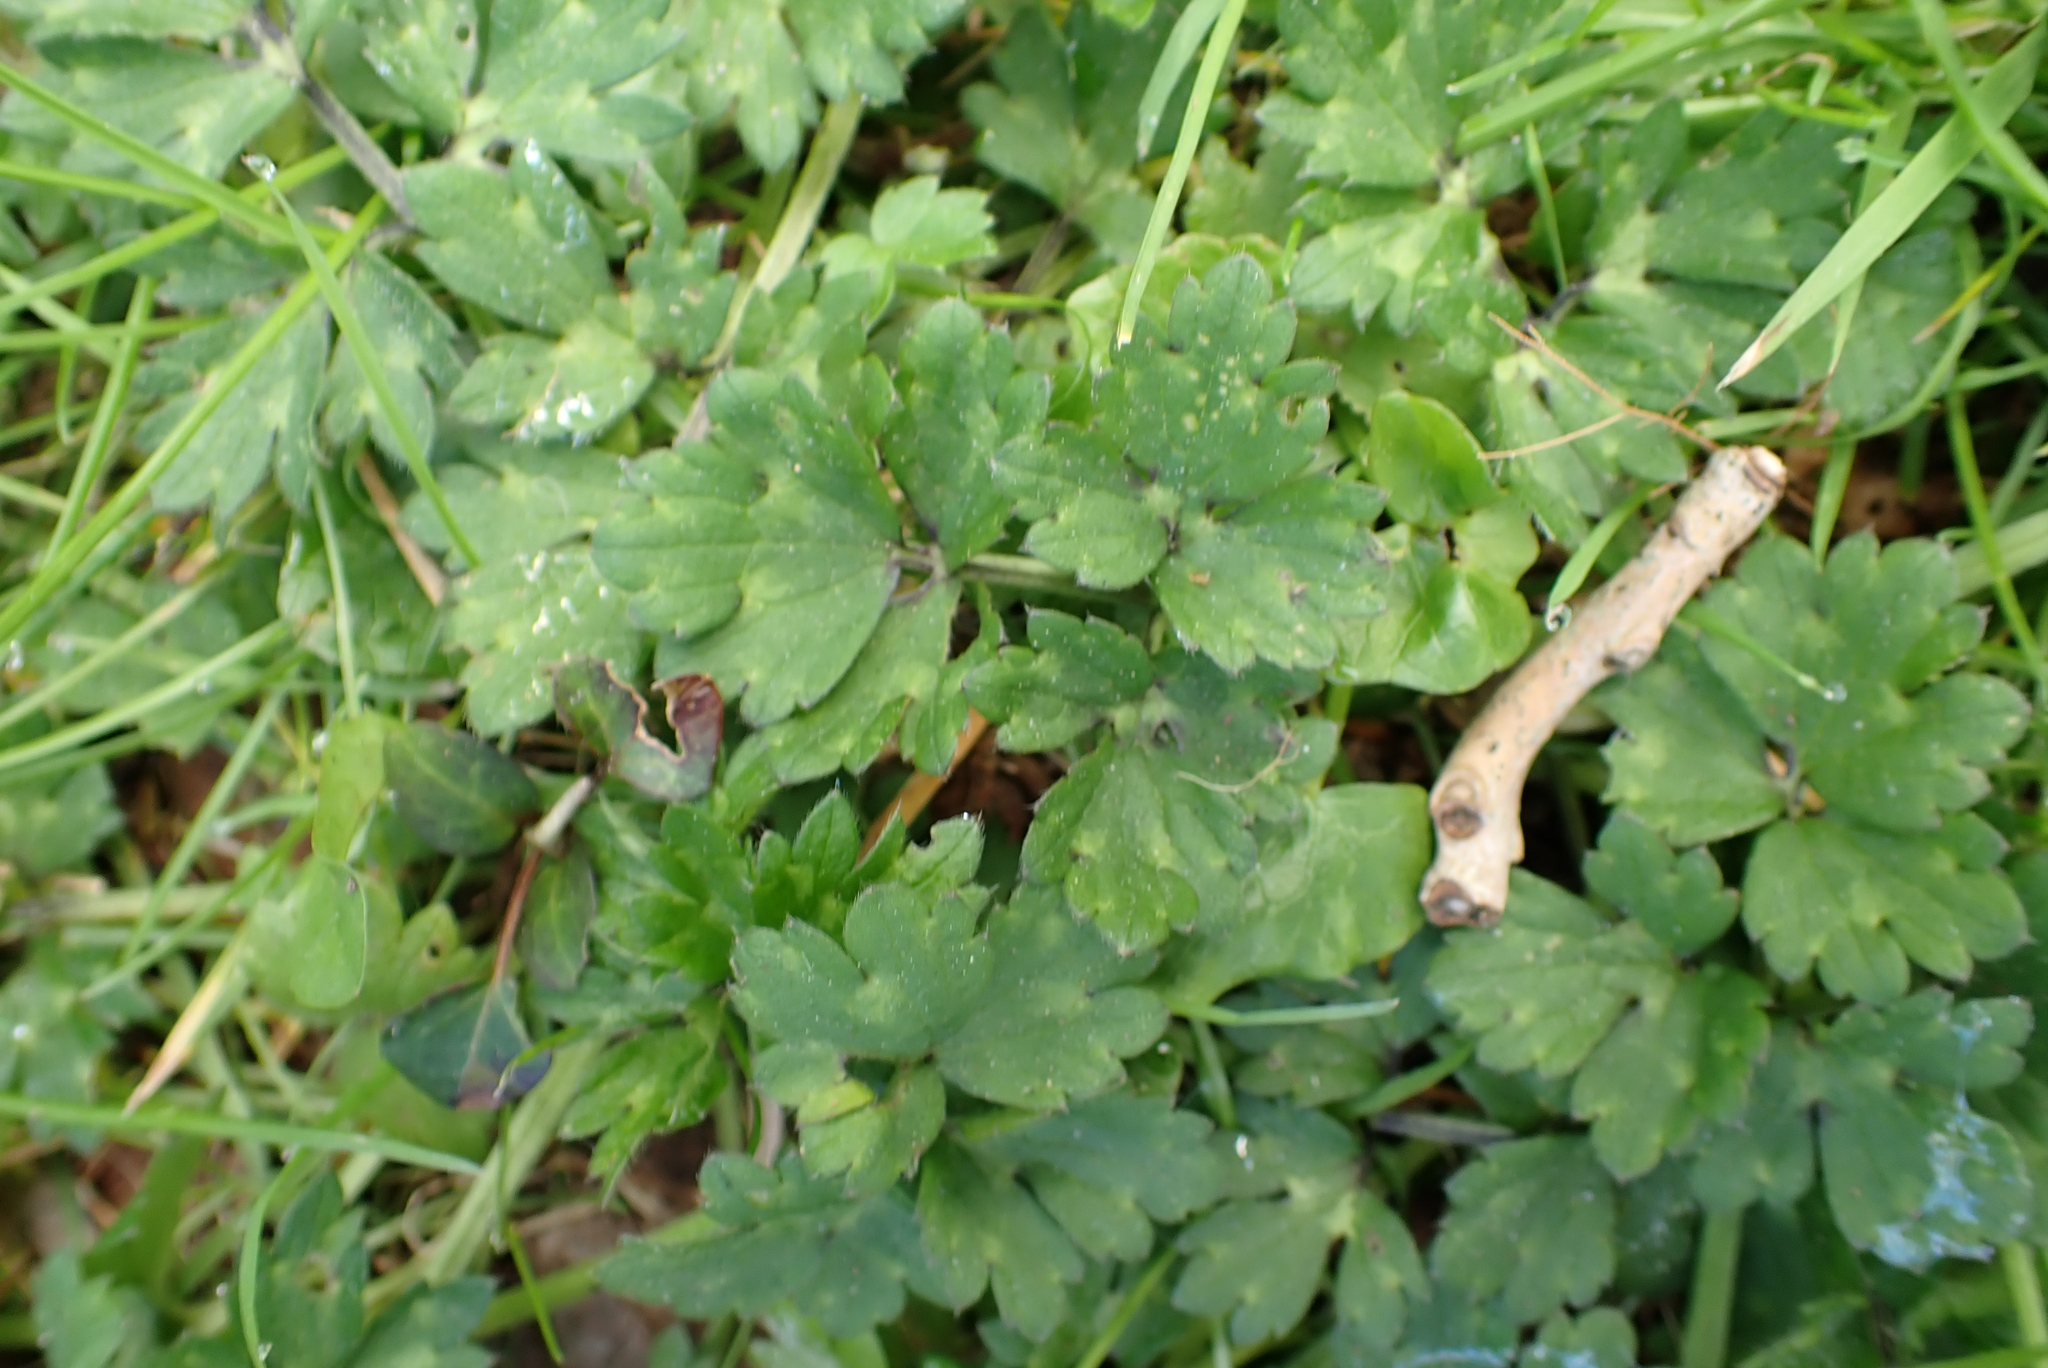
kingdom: Plantae
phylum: Tracheophyta
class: Magnoliopsida
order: Ranunculales
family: Ranunculaceae
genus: Ranunculus
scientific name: Ranunculus repens
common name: Creeping buttercup
